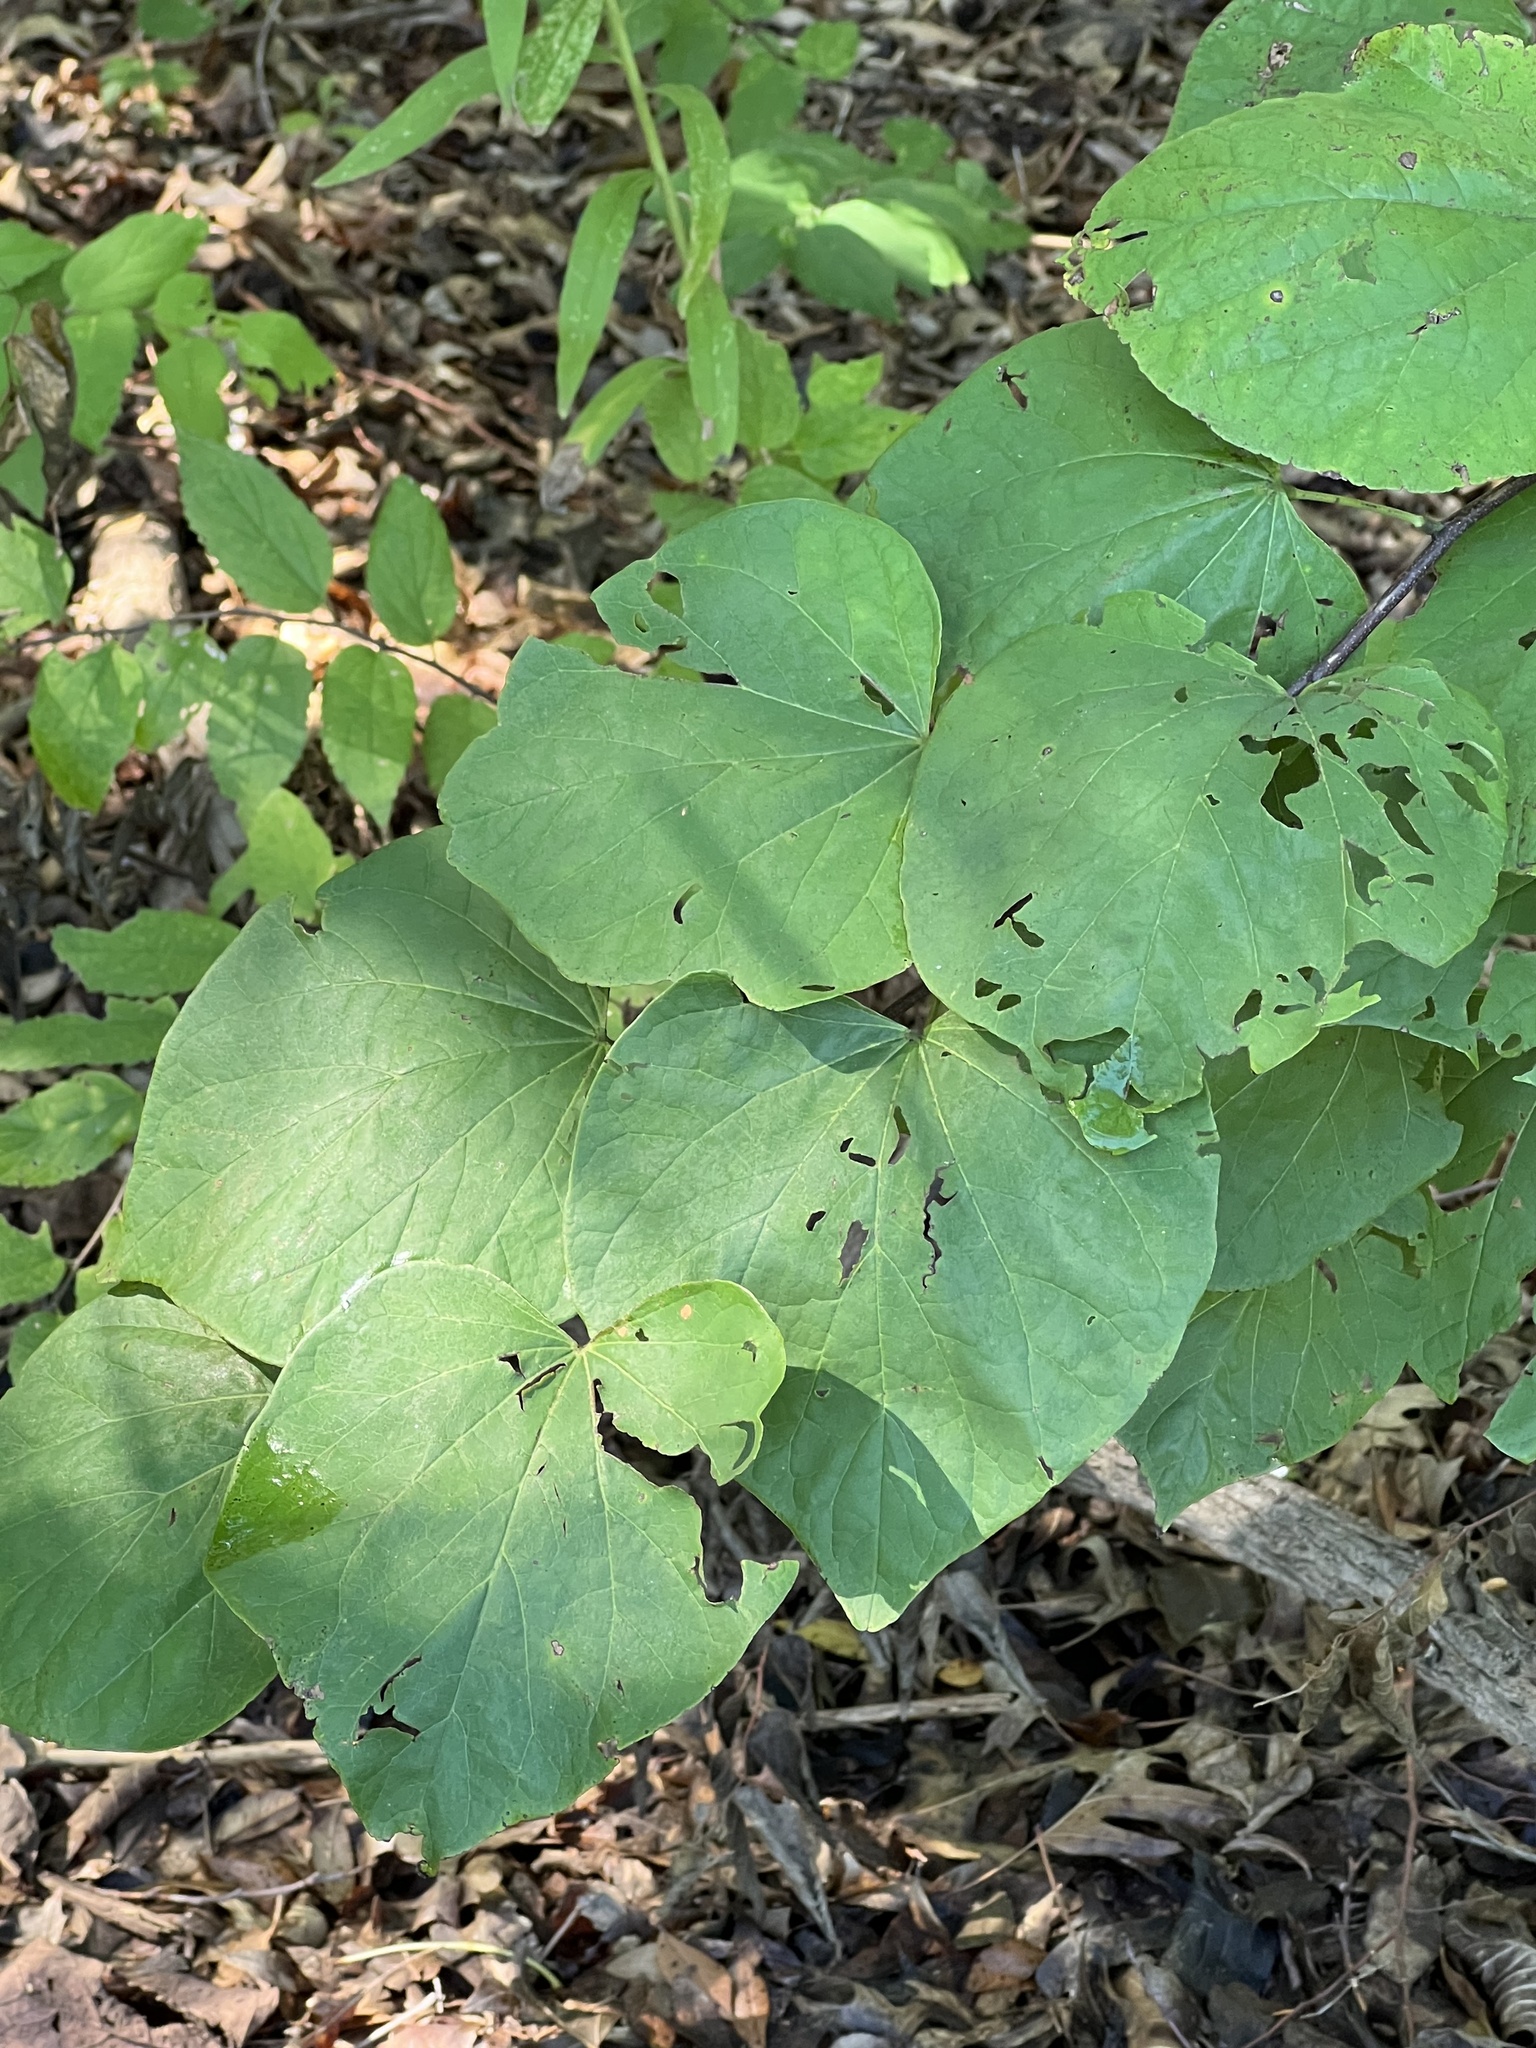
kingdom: Plantae
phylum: Tracheophyta
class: Magnoliopsida
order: Fabales
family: Fabaceae
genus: Cercis
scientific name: Cercis canadensis
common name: Eastern redbud
